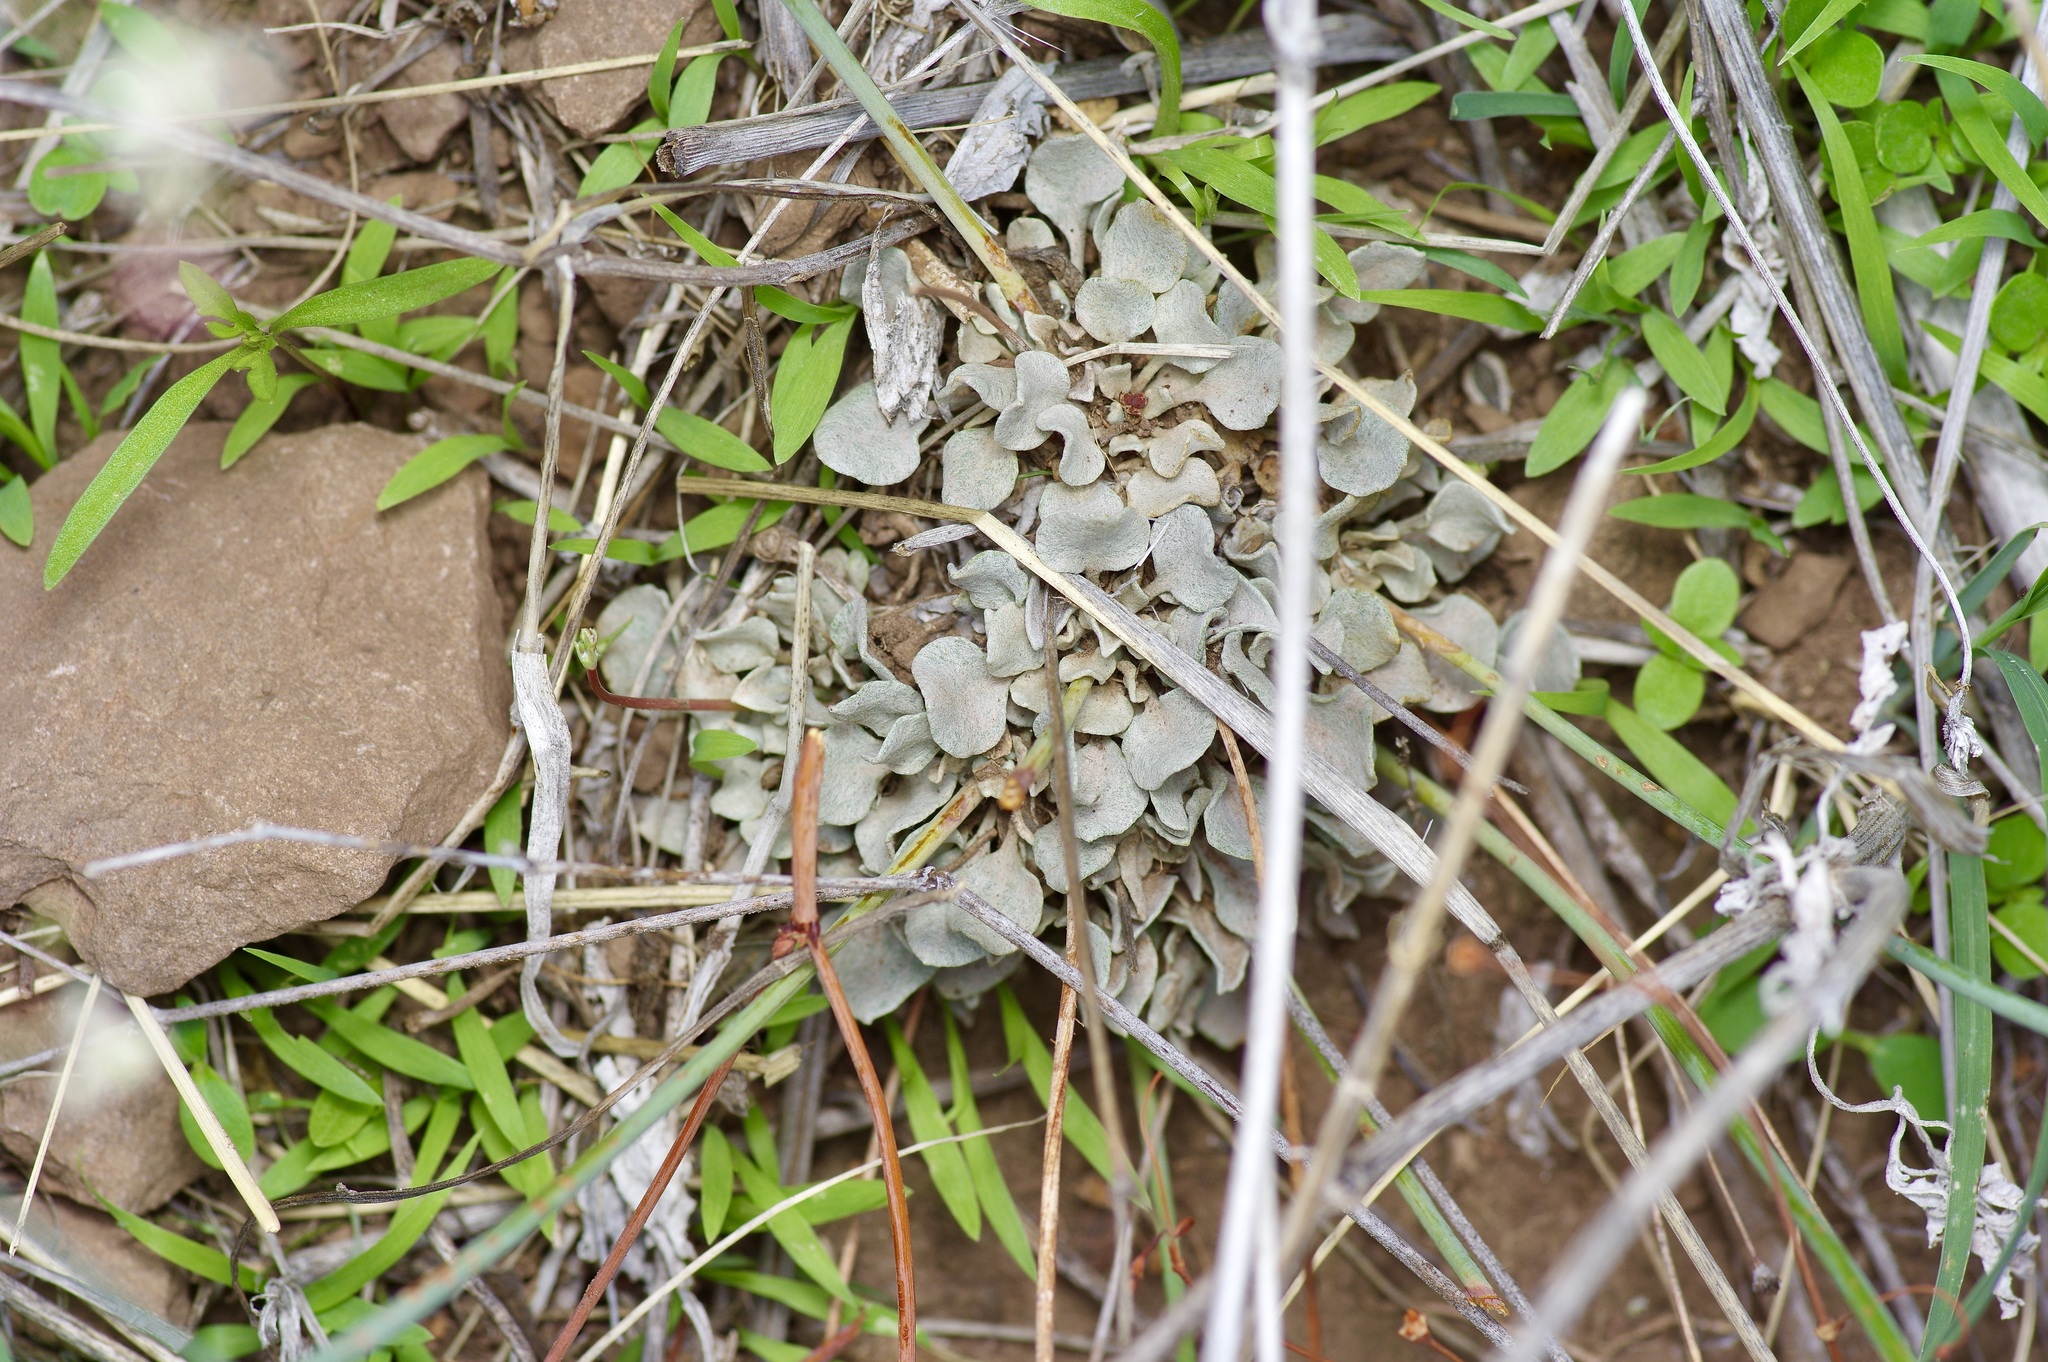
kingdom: Plantae
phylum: Tracheophyta
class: Magnoliopsida
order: Caryophyllales
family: Polygonaceae
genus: Eriogonum
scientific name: Eriogonum tenellum
